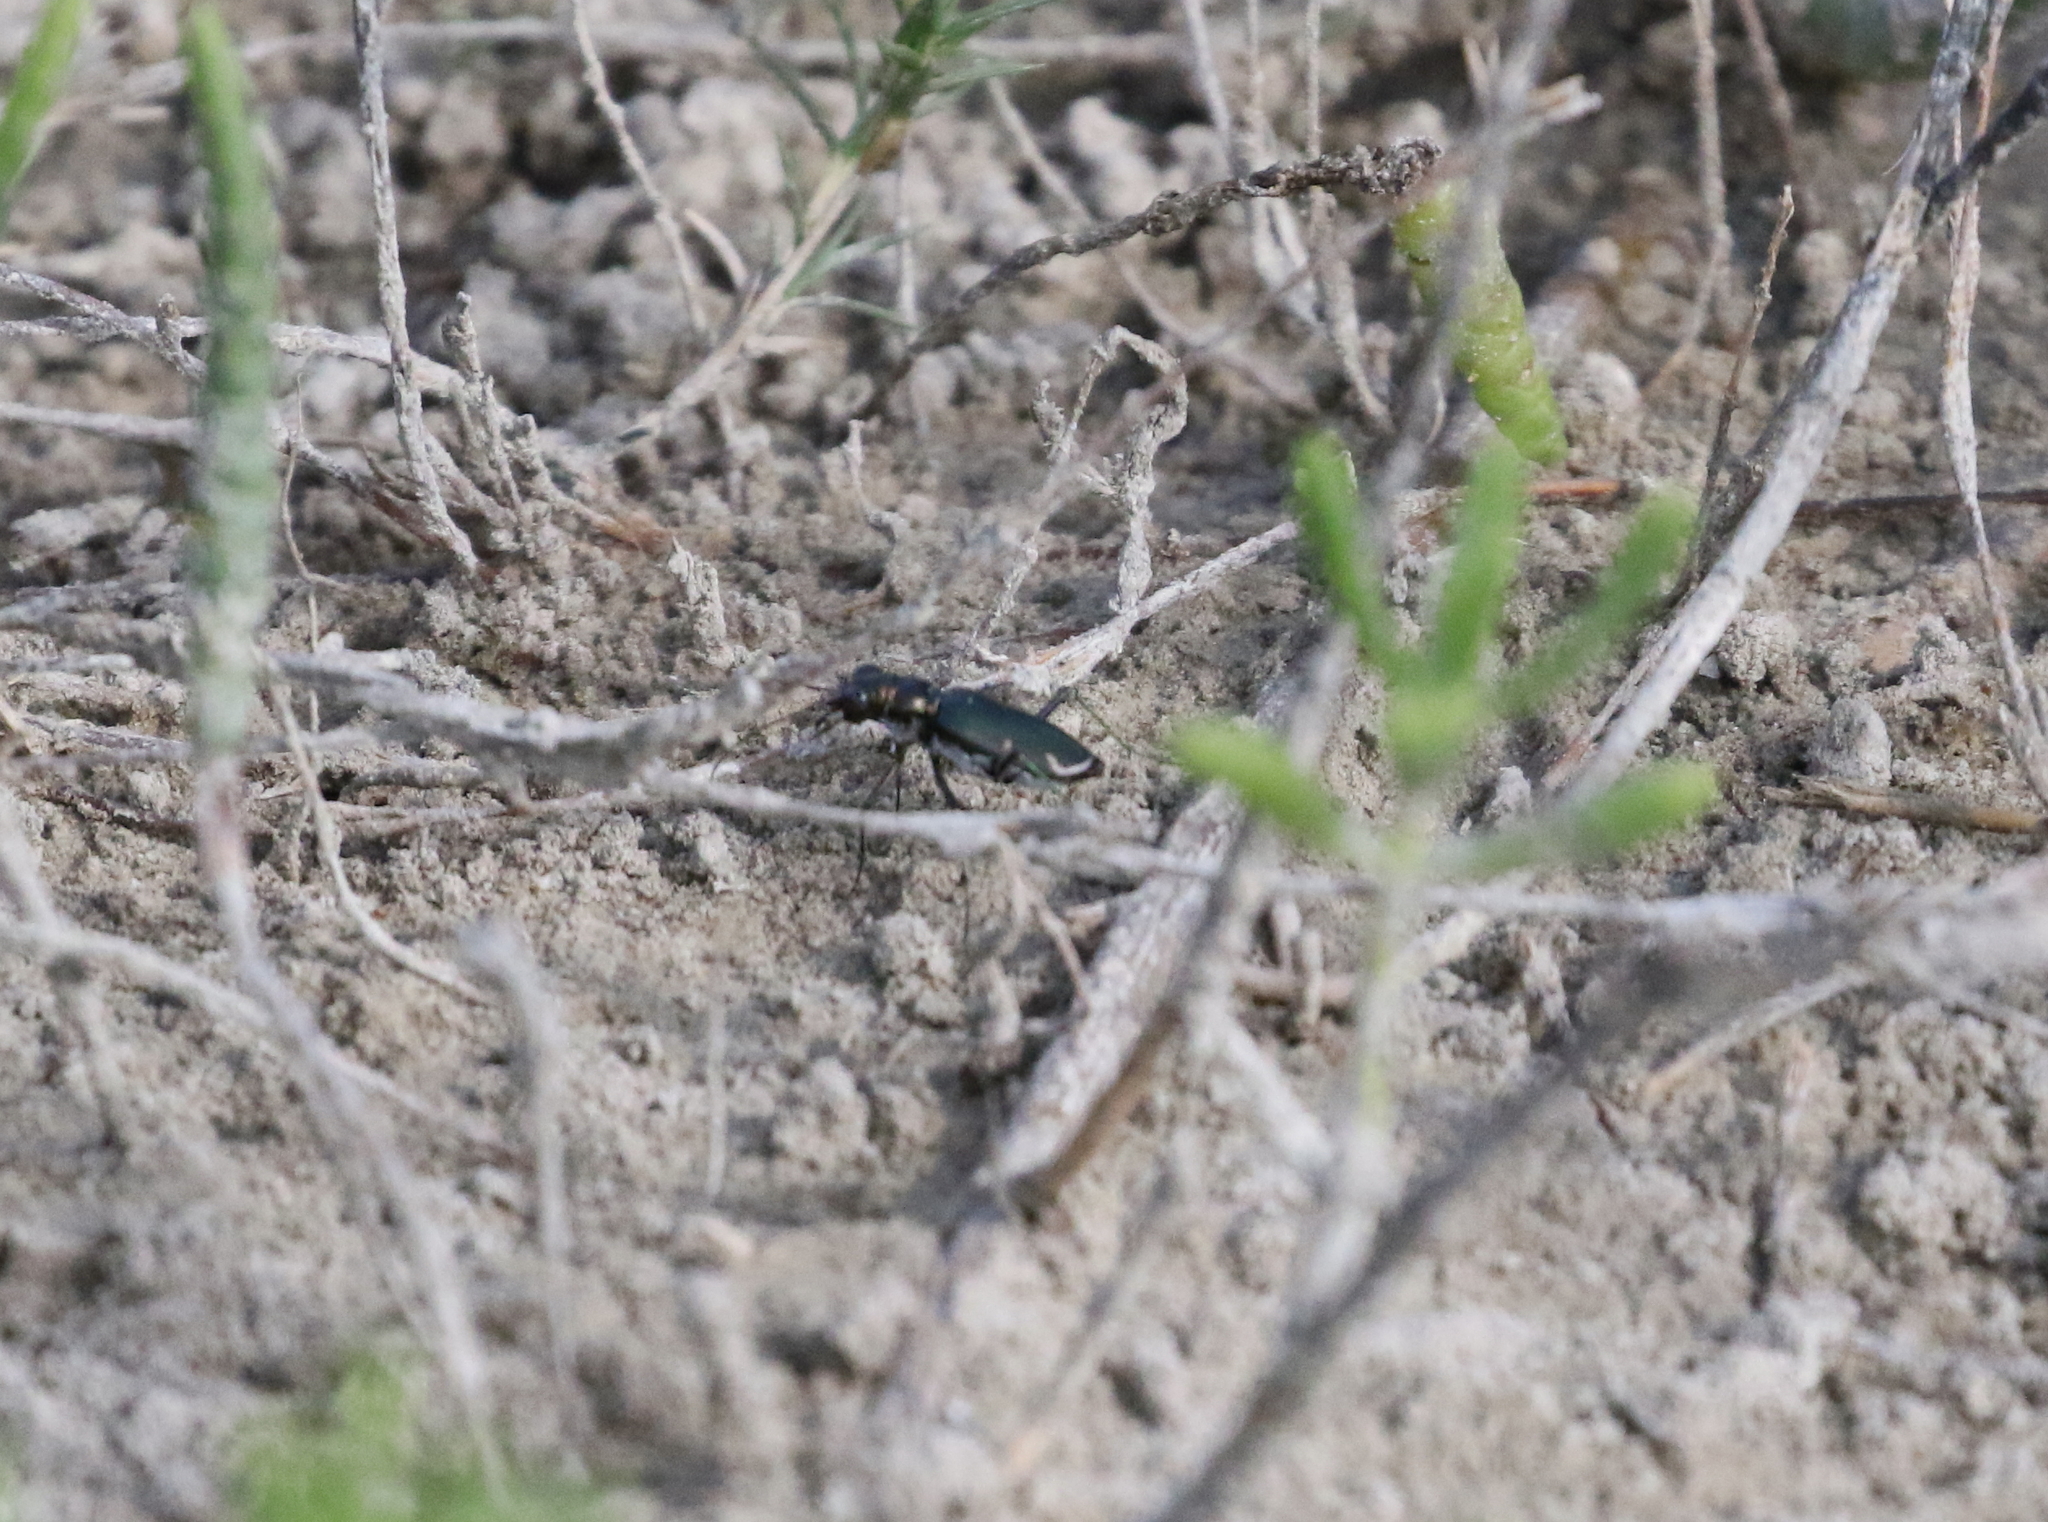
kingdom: Animalia
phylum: Arthropoda
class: Insecta
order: Coleoptera
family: Carabidae
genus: Eunota
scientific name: Eunota severa
